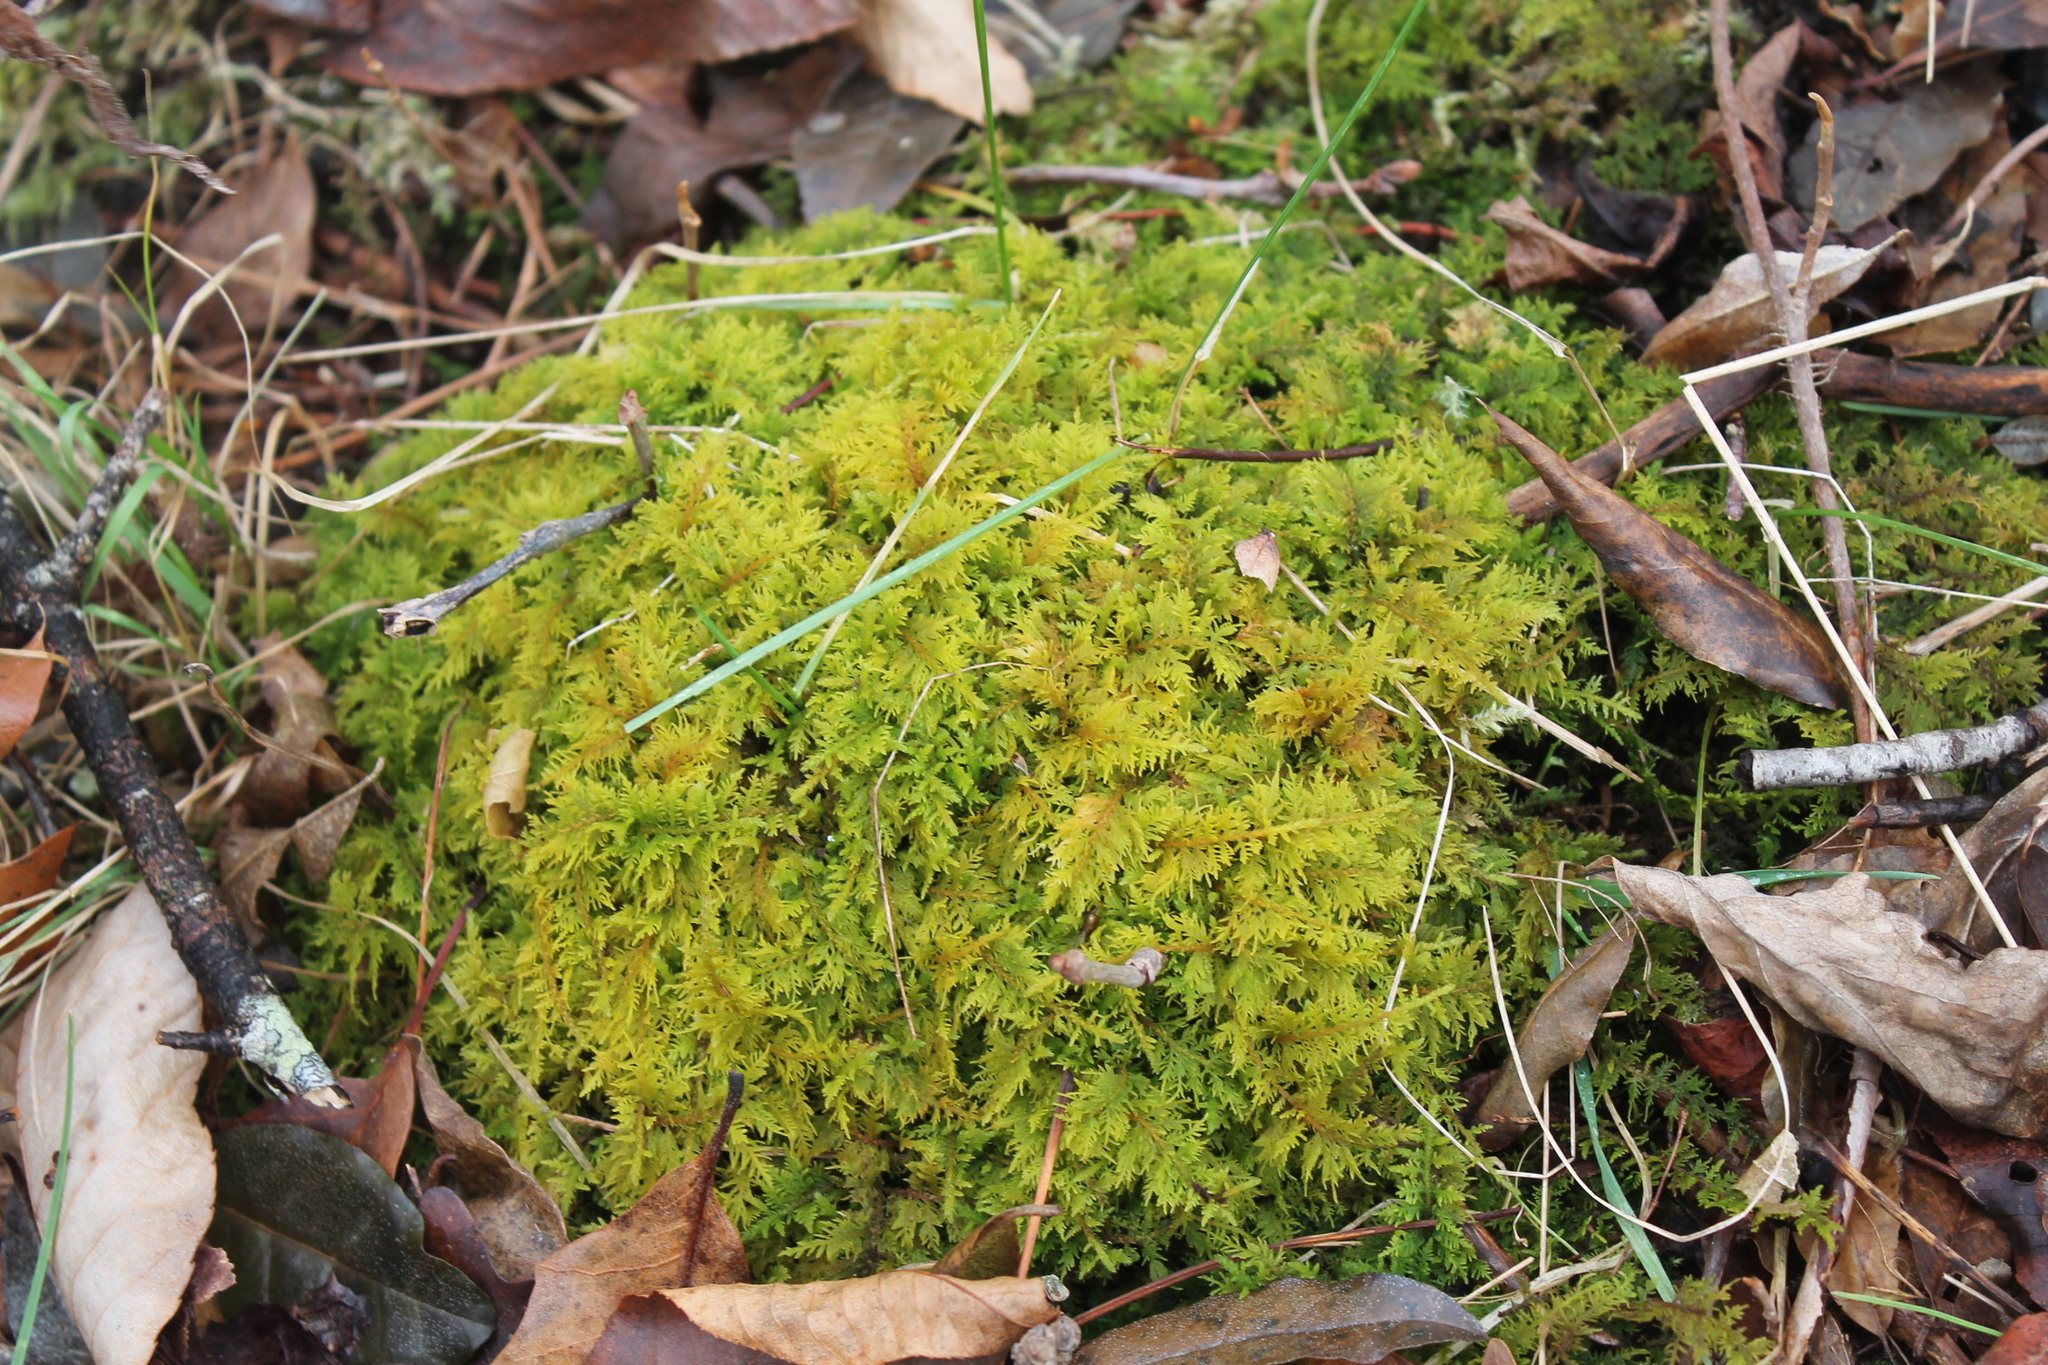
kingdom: Plantae
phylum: Bryophyta
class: Bryopsida
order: Hypnales
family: Thuidiaceae
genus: Thuidium
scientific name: Thuidium delicatulum
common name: Delicate fern moss
